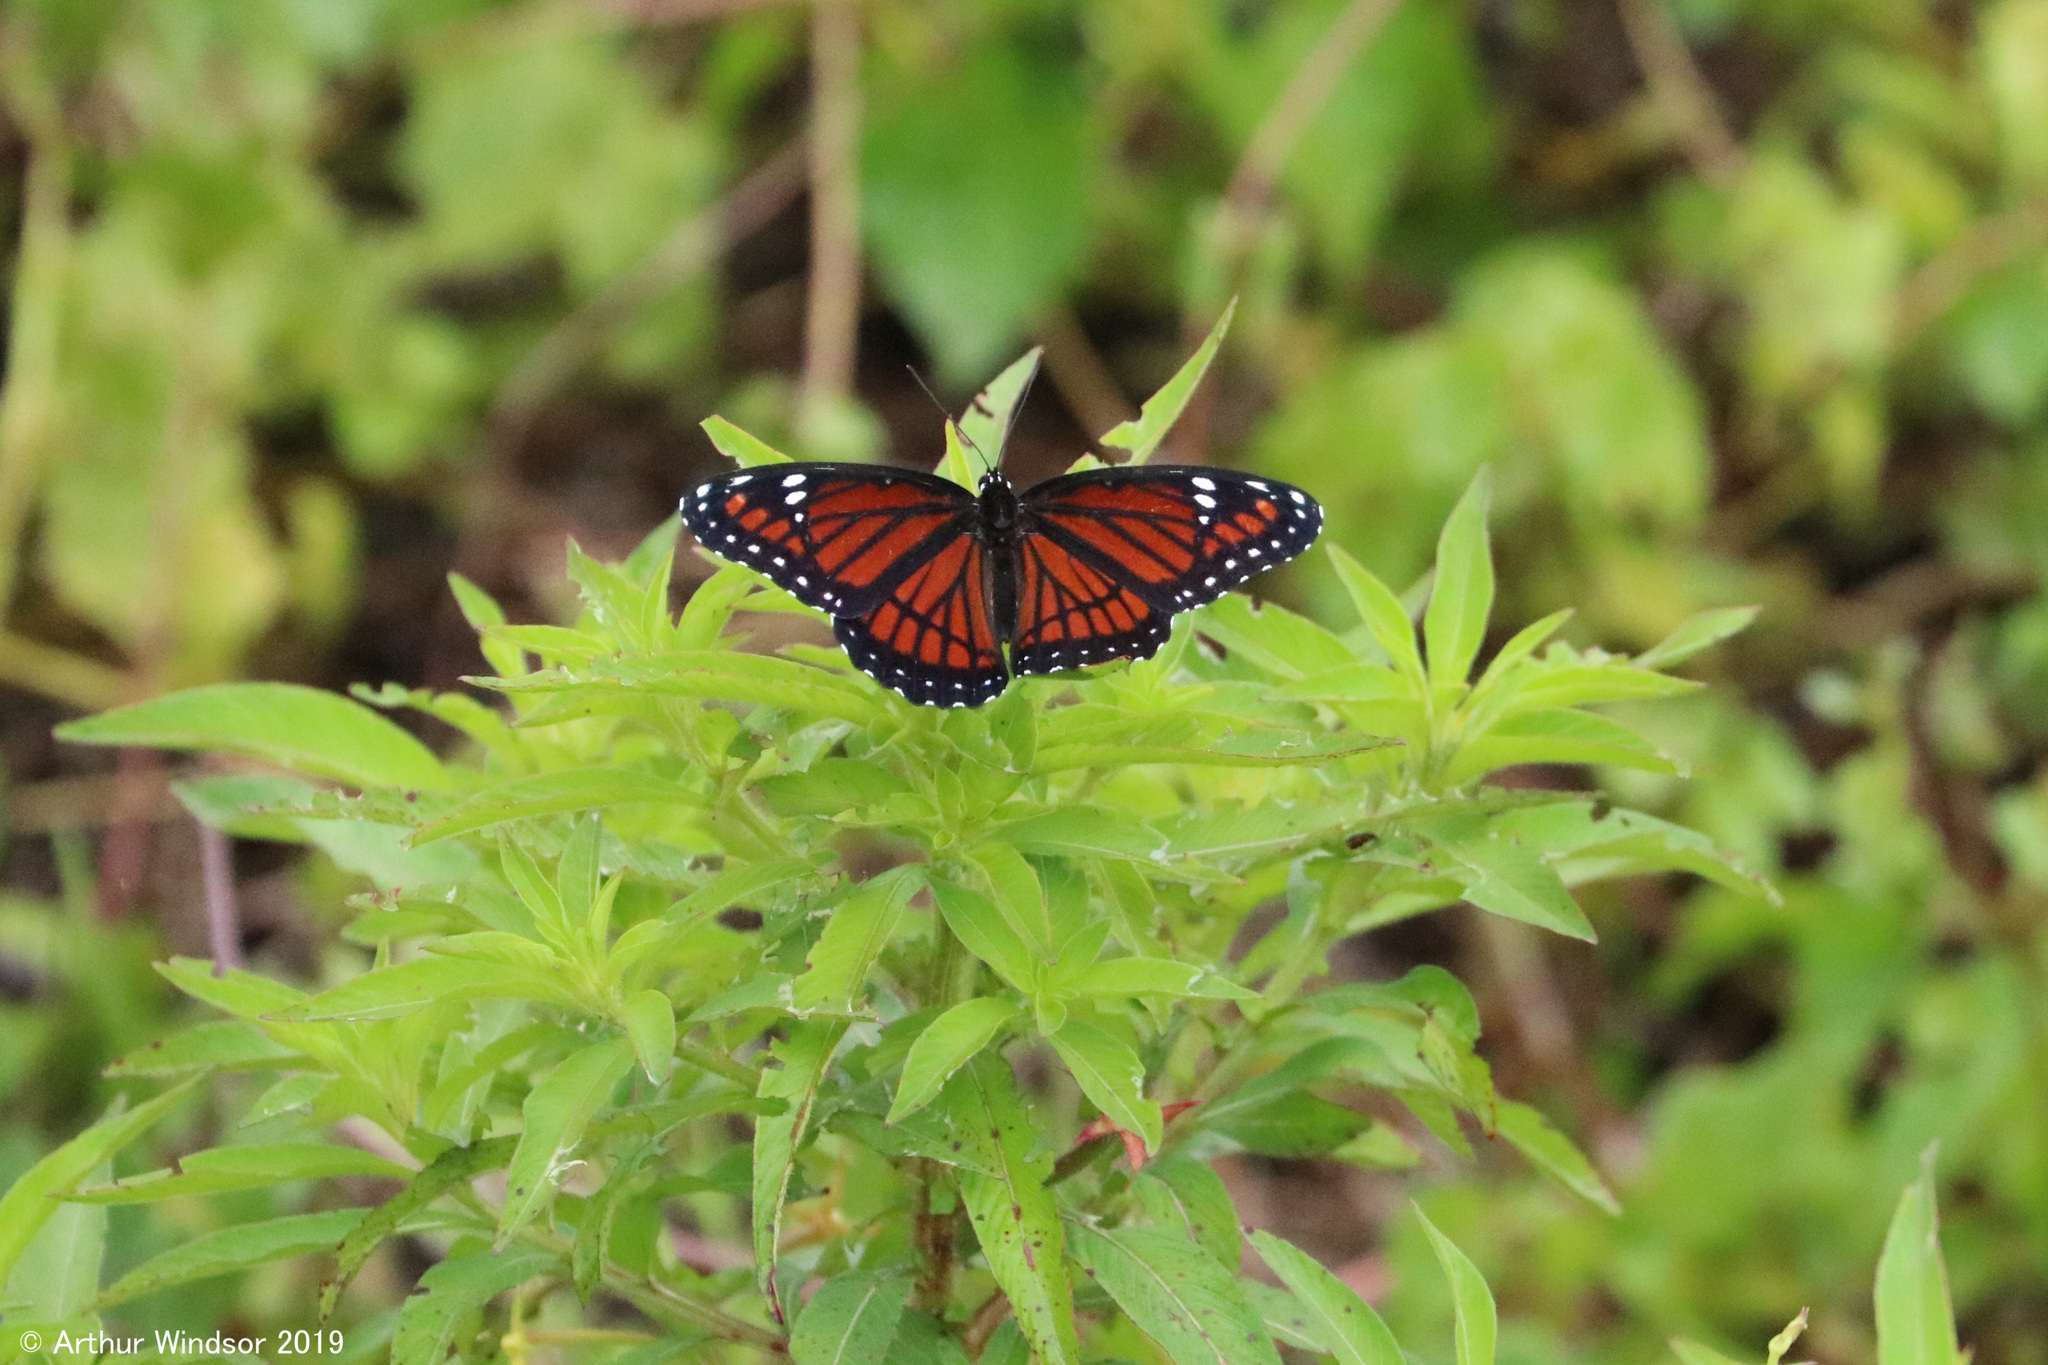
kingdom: Animalia
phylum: Arthropoda
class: Insecta
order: Lepidoptera
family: Nymphalidae
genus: Limenitis
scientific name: Limenitis archippus
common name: Viceroy
